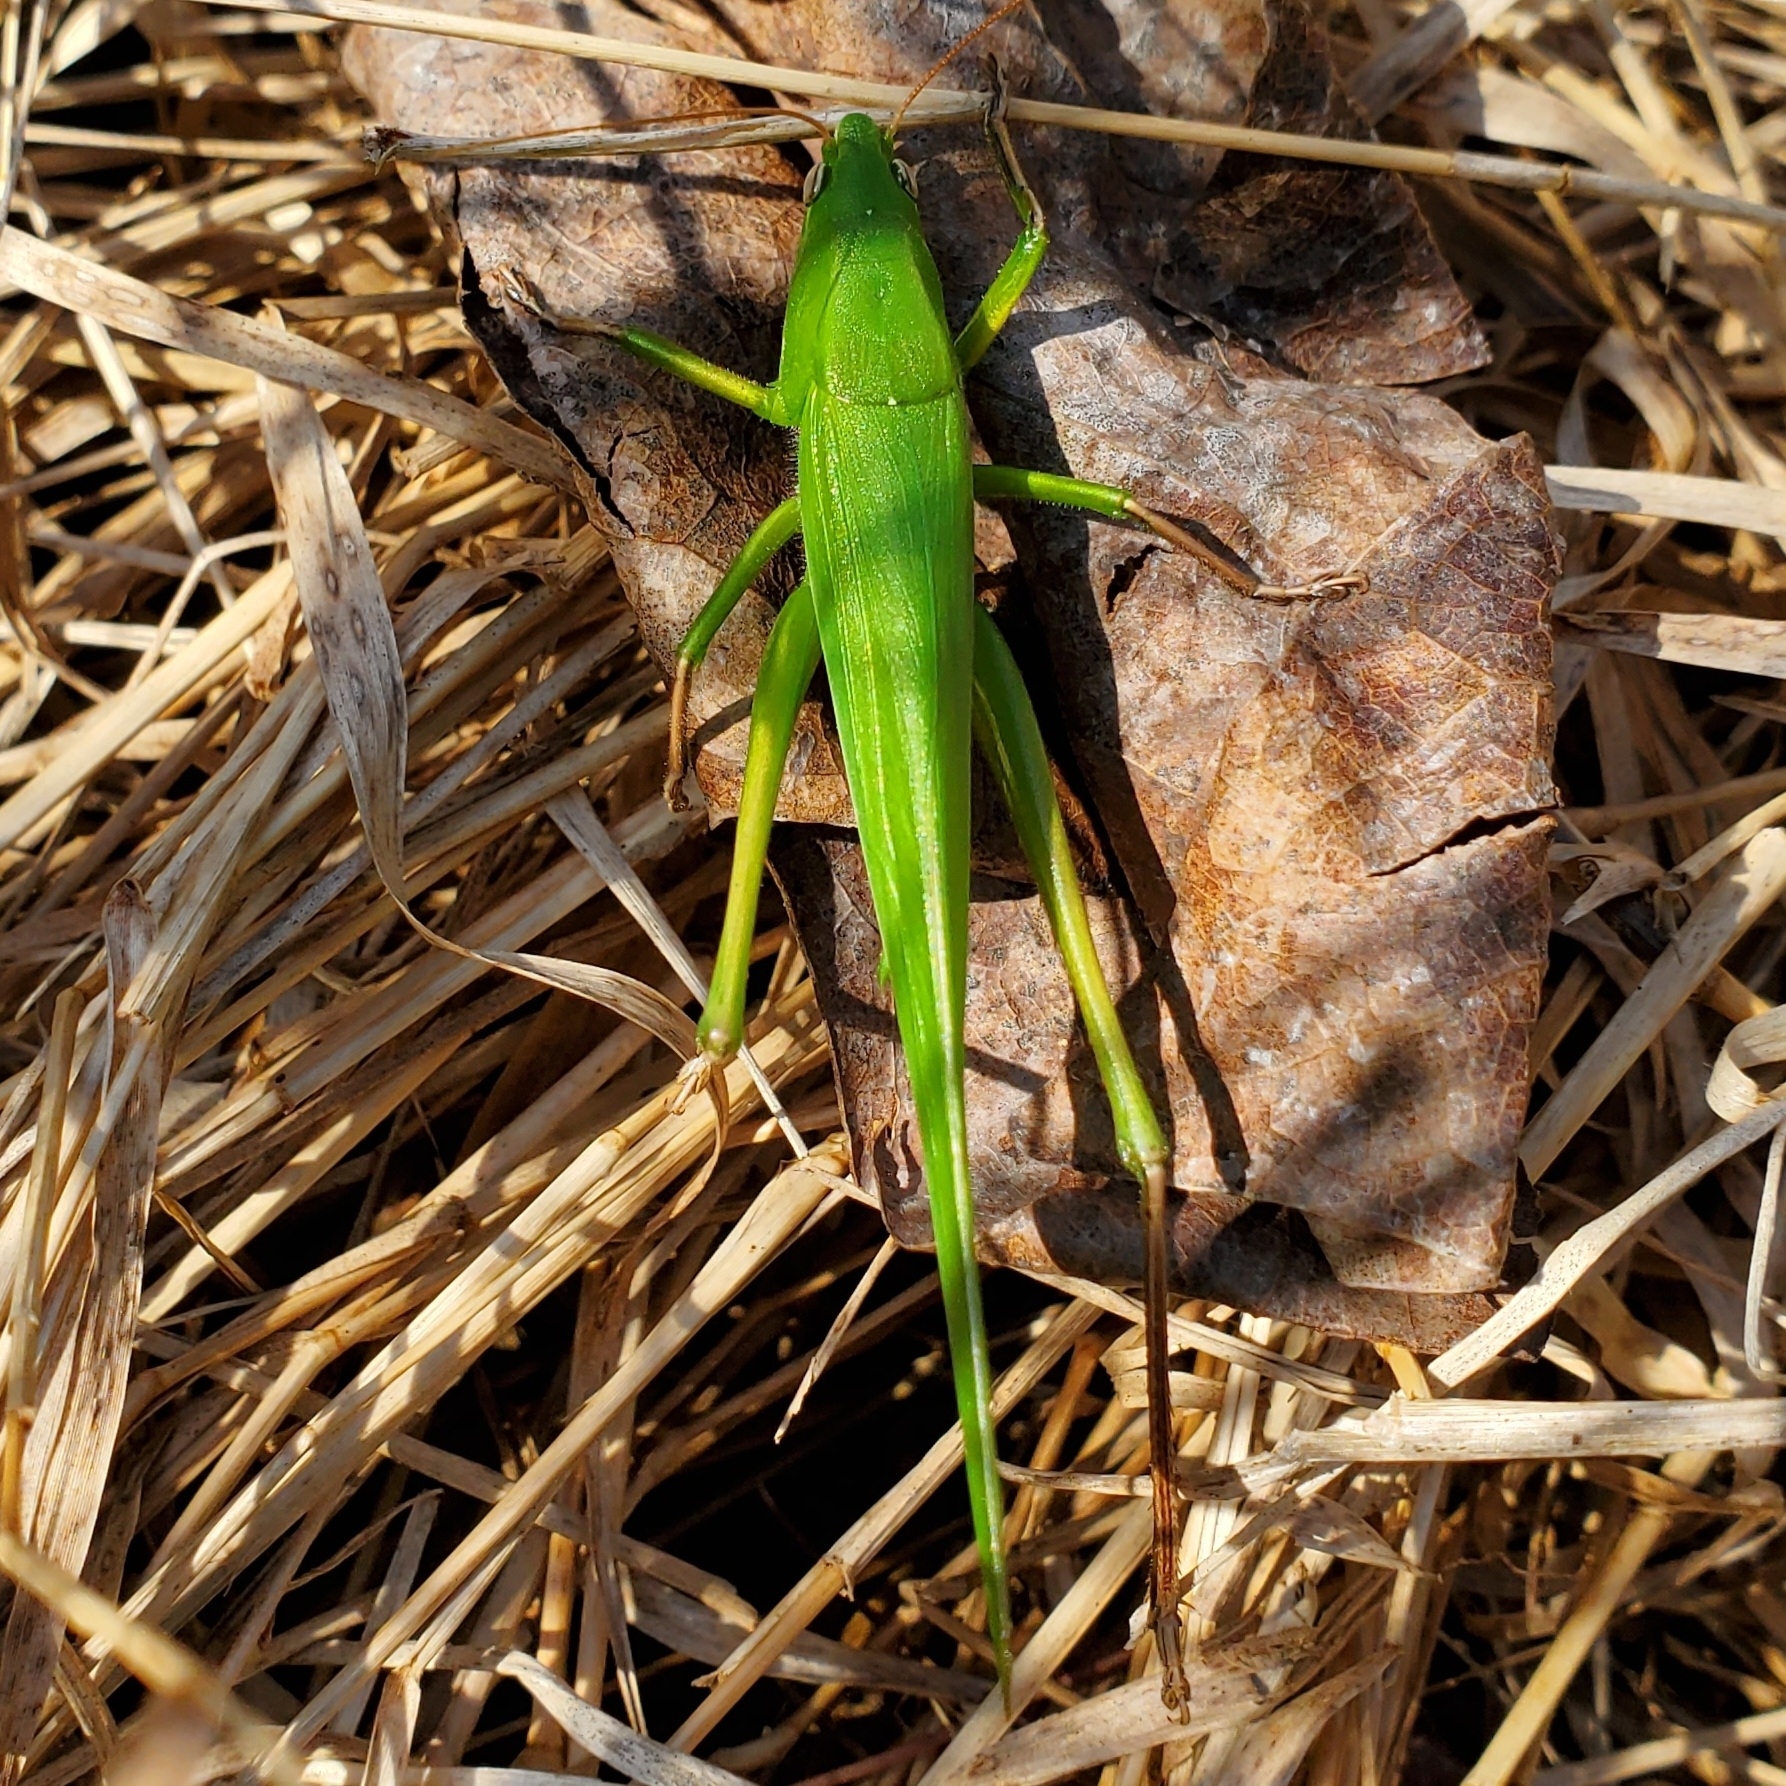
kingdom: Animalia
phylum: Arthropoda
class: Insecta
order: Orthoptera
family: Tettigoniidae
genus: Neoconocephalus
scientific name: Neoconocephalus triops
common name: Broad-tipped conehead
